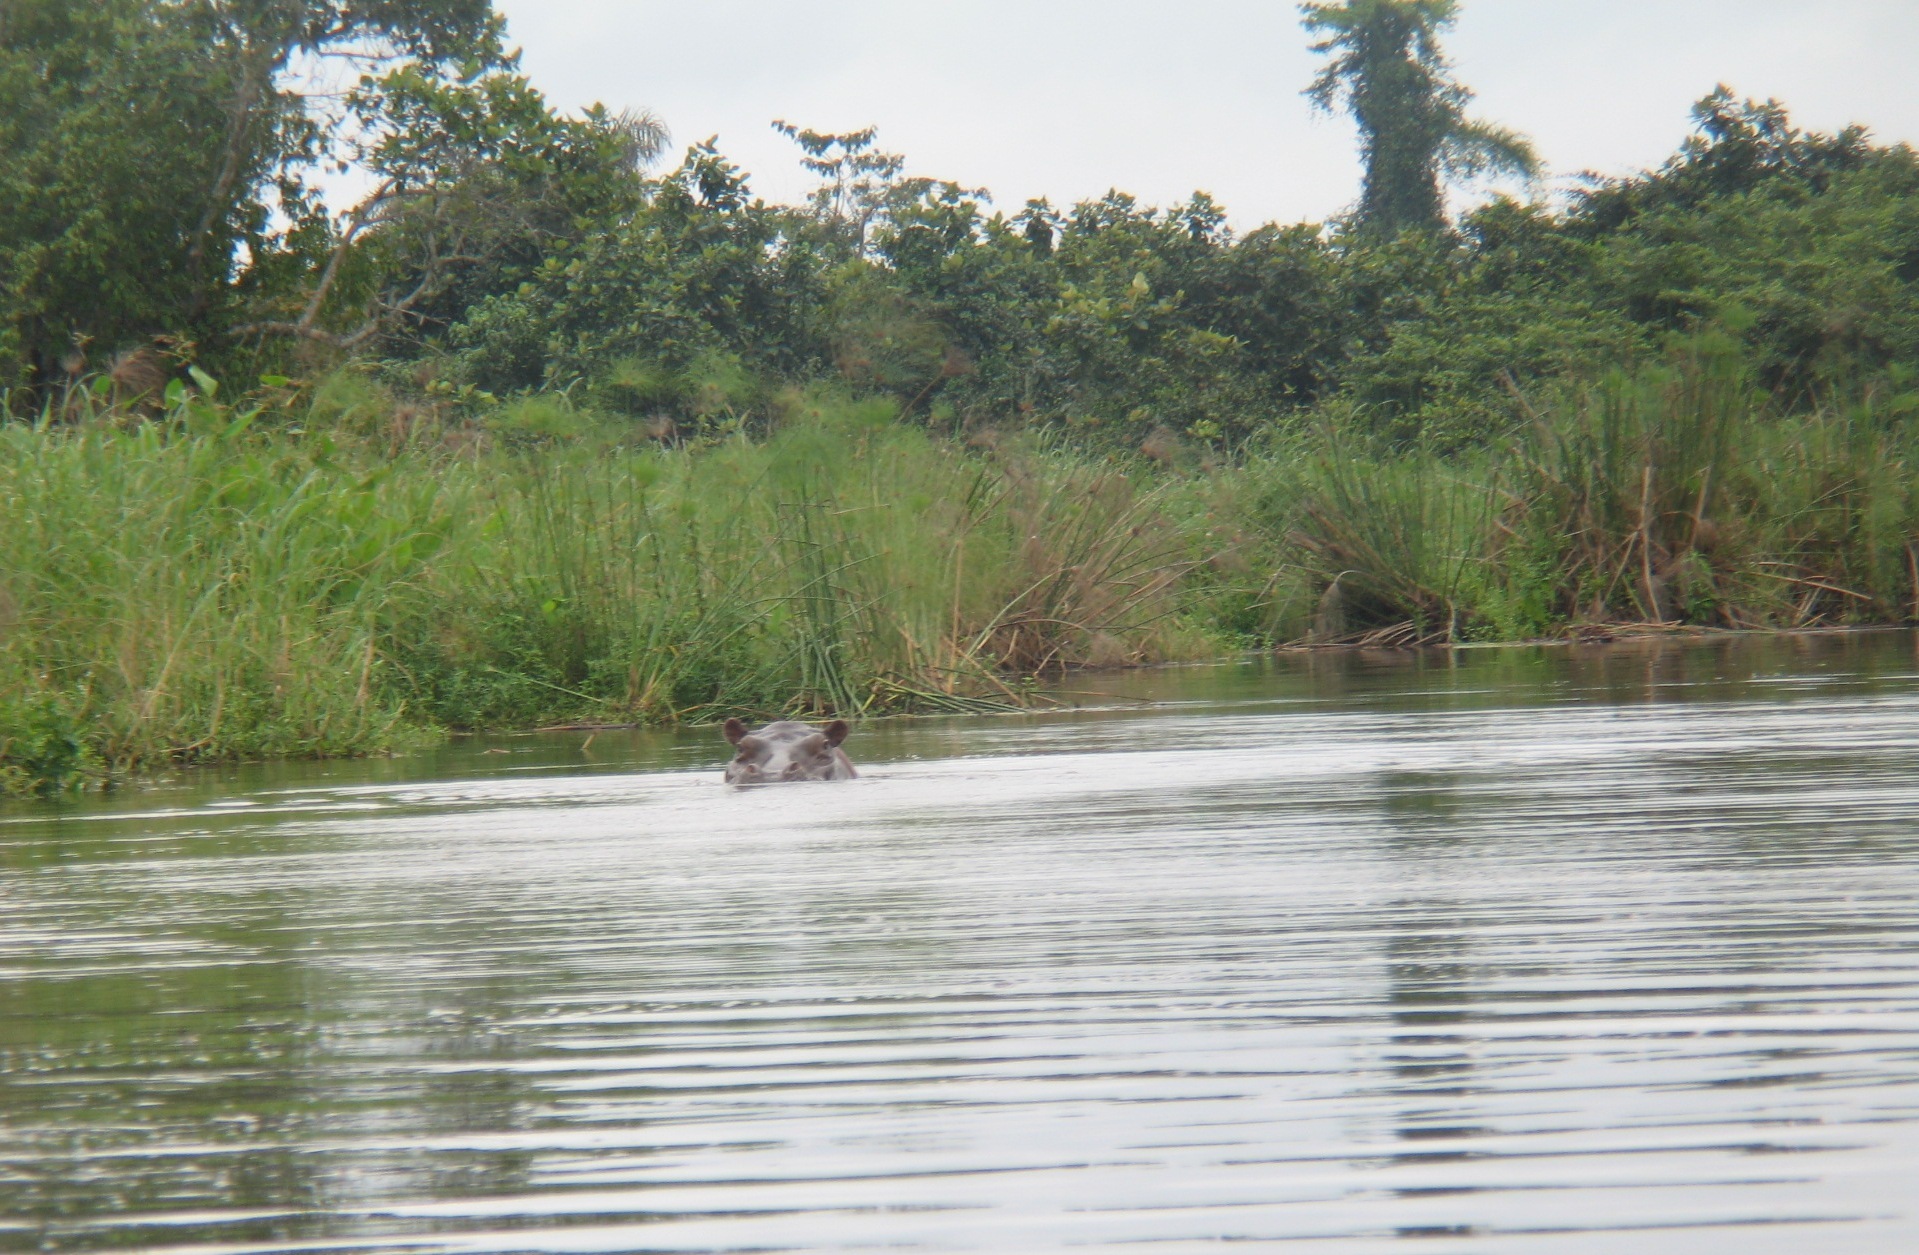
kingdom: Animalia
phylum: Chordata
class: Mammalia
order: Artiodactyla
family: Hippopotamidae
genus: Hippopotamus
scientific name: Hippopotamus amphibius
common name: Common hippopotamus
